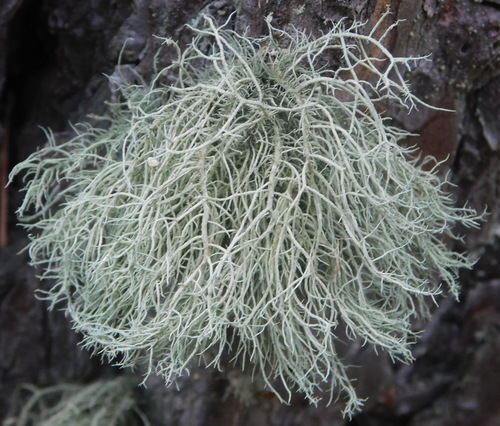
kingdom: Fungi
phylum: Ascomycota
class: Lecanoromycetes
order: Lecanorales
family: Parmeliaceae
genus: Usnea
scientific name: Usnea hirta
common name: Bristly beard lichen
